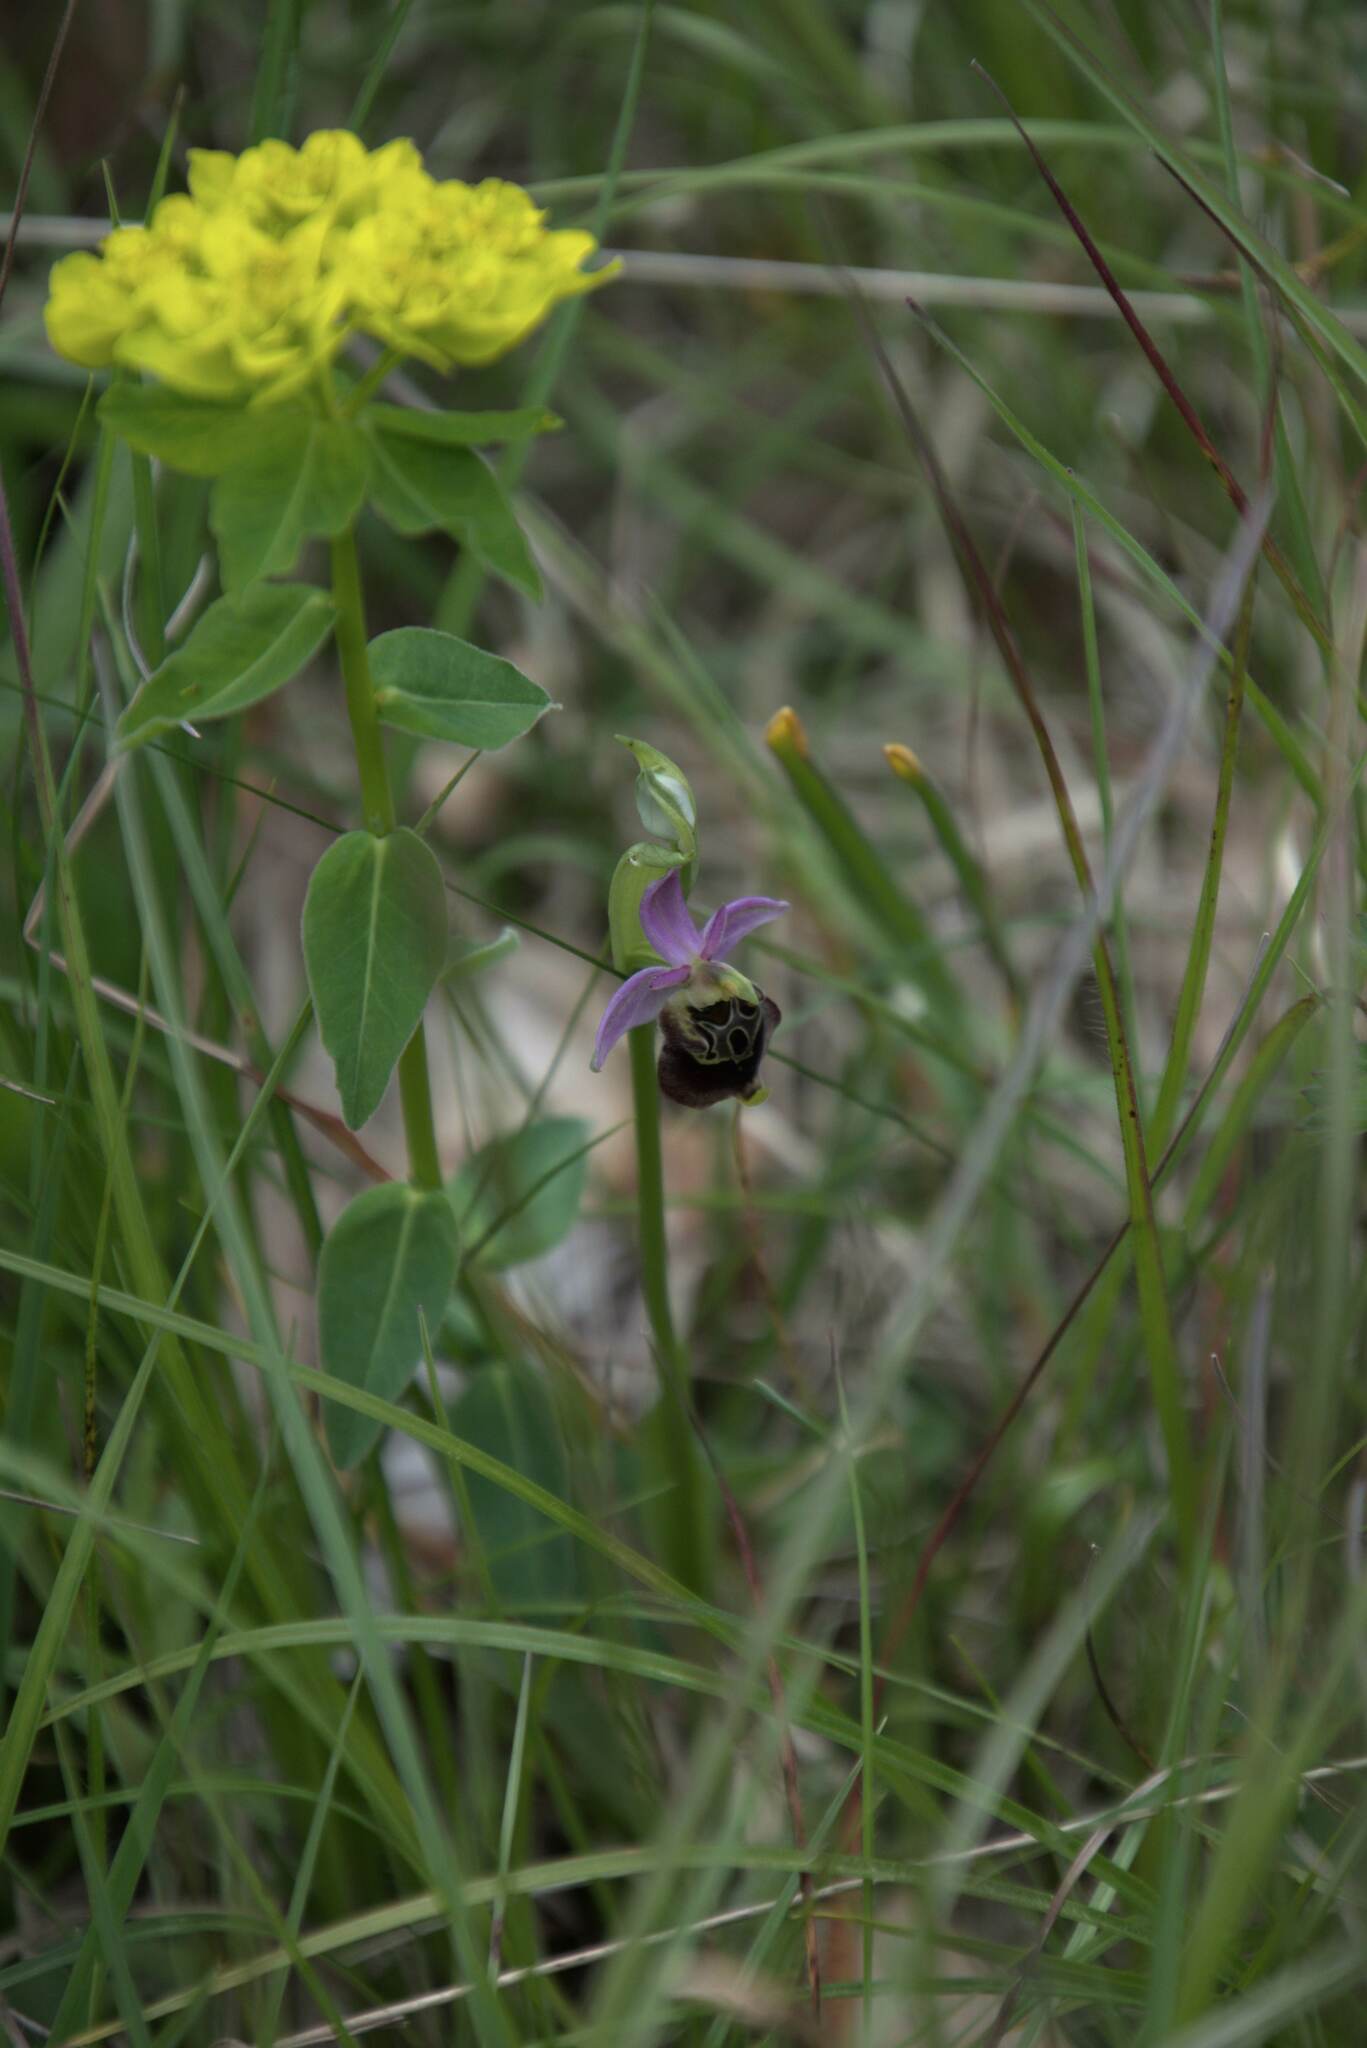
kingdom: Plantae
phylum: Tracheophyta
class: Liliopsida
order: Asparagales
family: Orchidaceae
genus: Ophrys
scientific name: Ophrys holosericea
